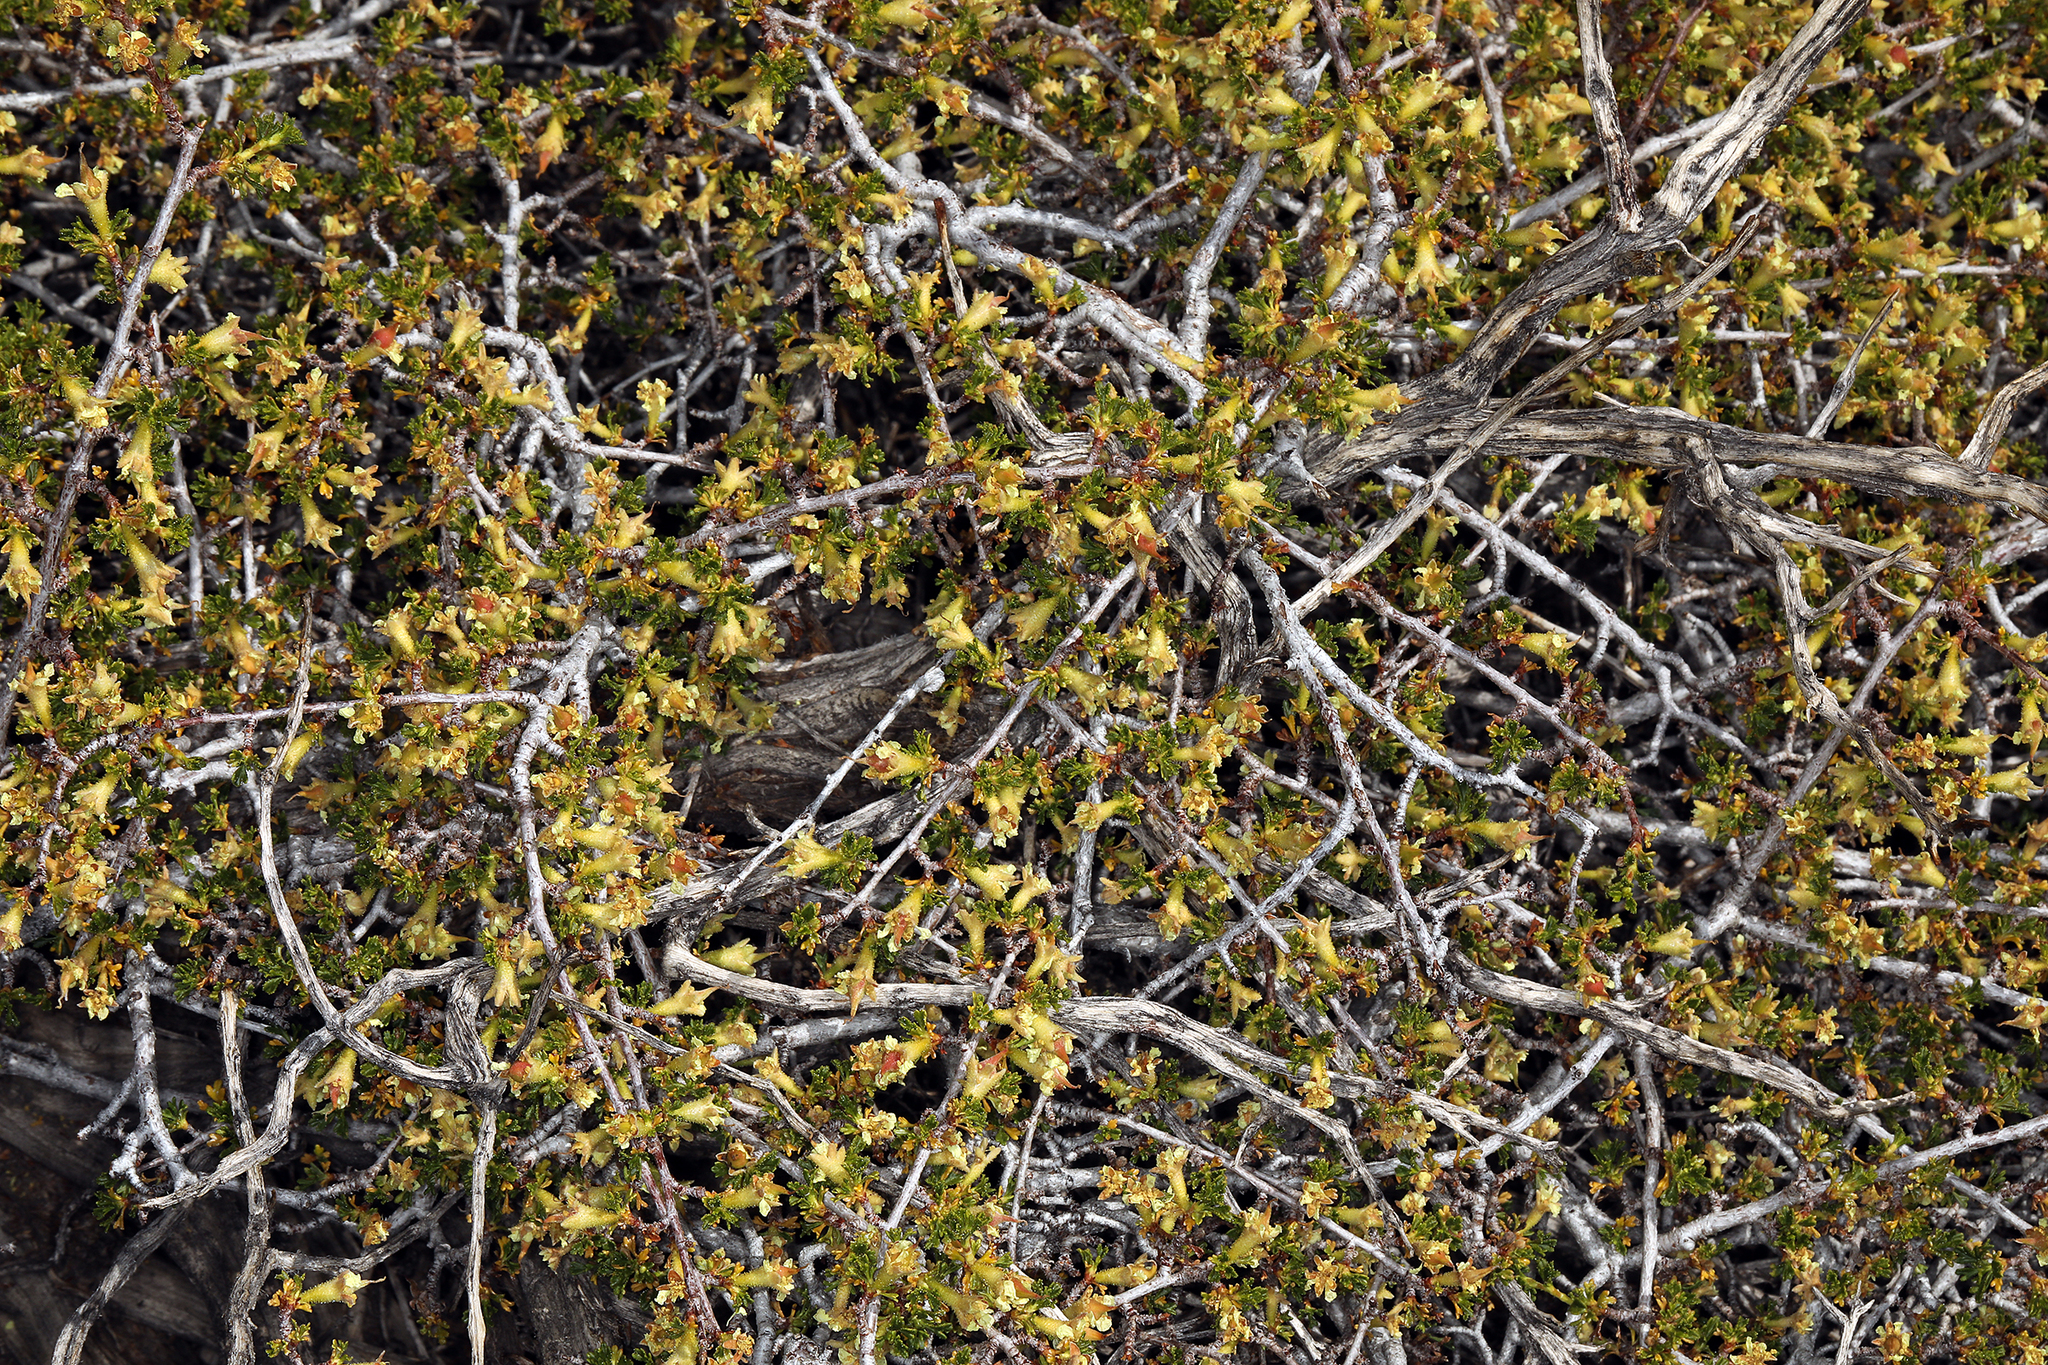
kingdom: Plantae
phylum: Tracheophyta
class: Magnoliopsida
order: Rosales
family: Rosaceae
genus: Purshia
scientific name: Purshia glandulosa
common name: Desert bitterbrush
